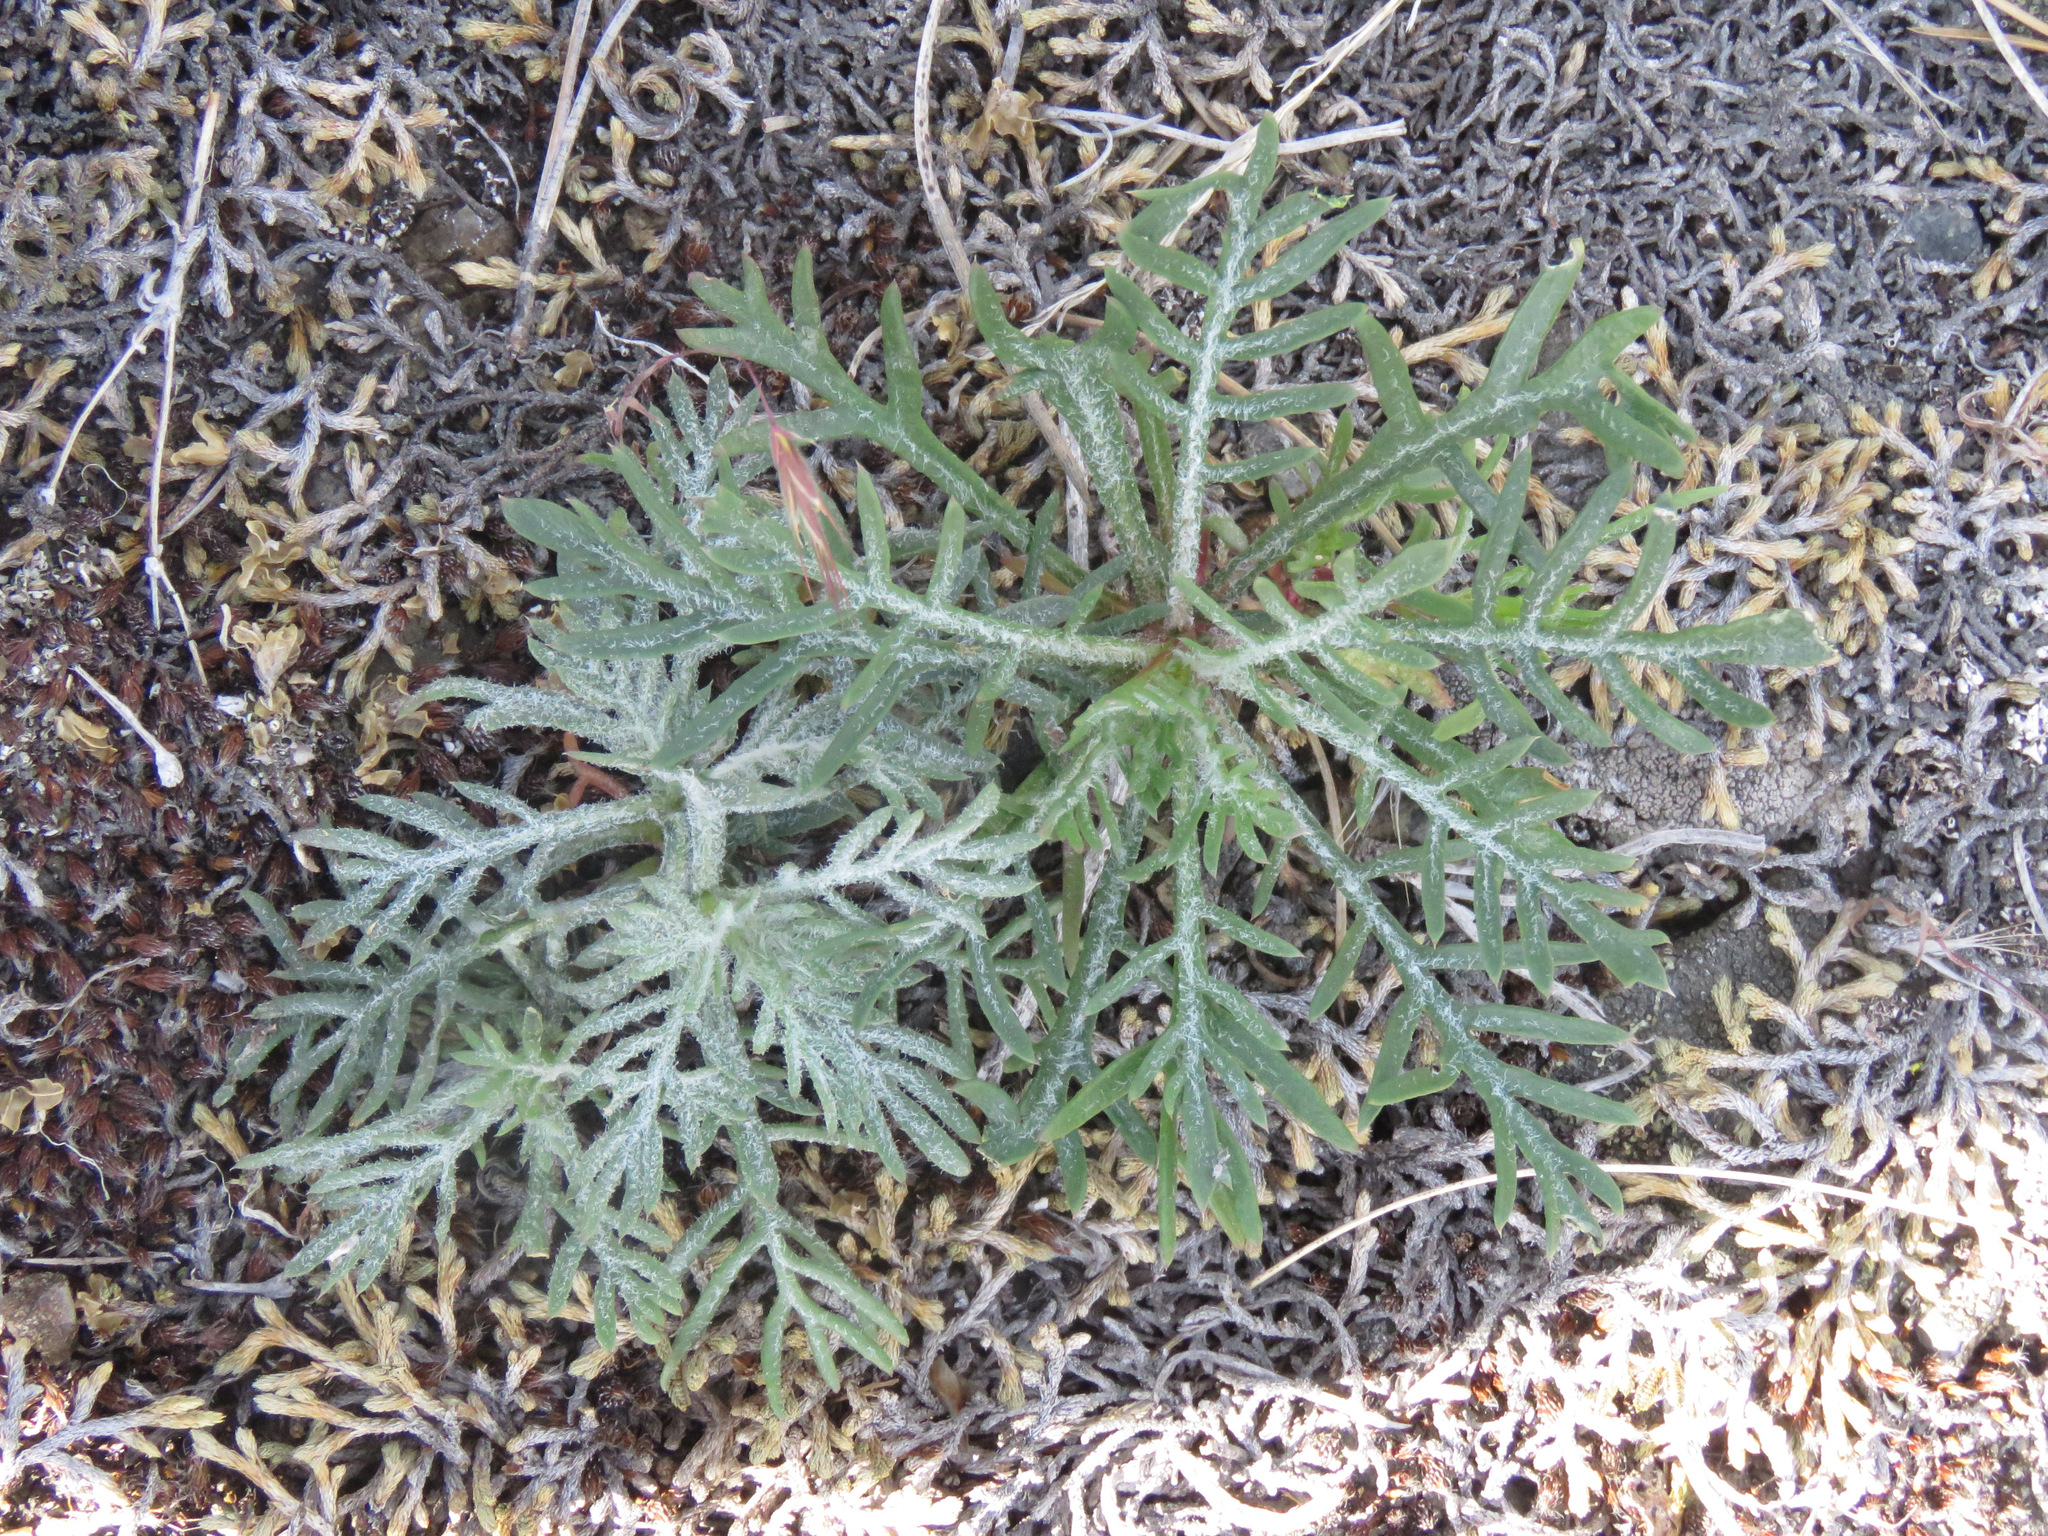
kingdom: Plantae
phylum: Tracheophyta
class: Magnoliopsida
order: Ericales
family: Polemoniaceae
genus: Ipomopsis
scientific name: Ipomopsis aggregata
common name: Scarlet gilia
